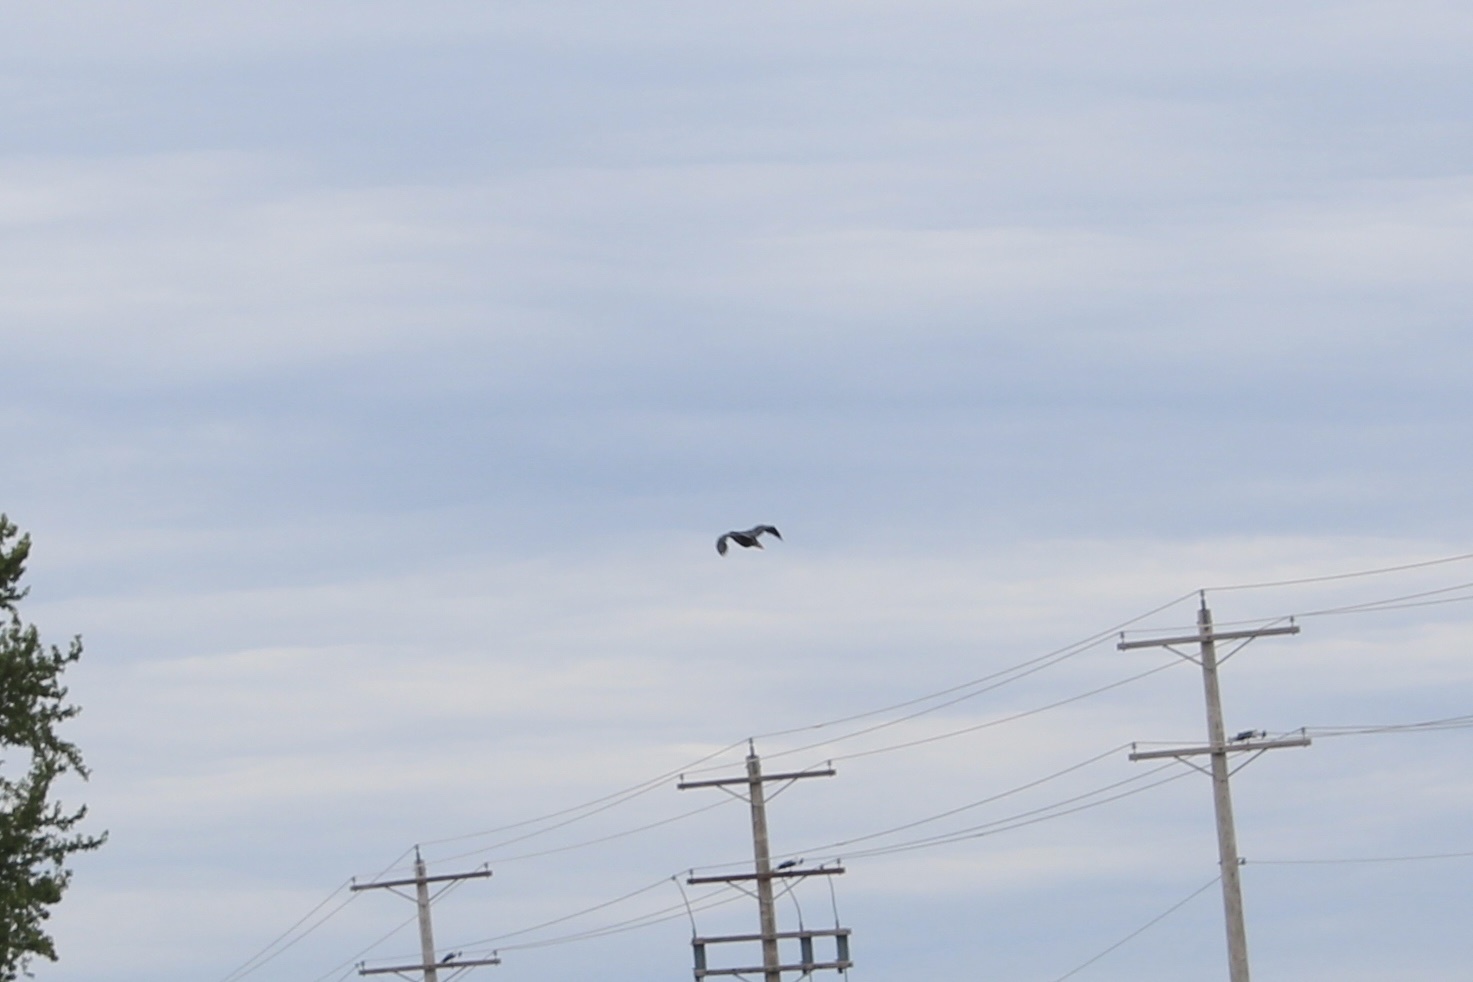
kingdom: Animalia
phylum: Chordata
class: Aves
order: Pelecaniformes
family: Ardeidae
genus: Butorides
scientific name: Butorides virescens
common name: Green heron
